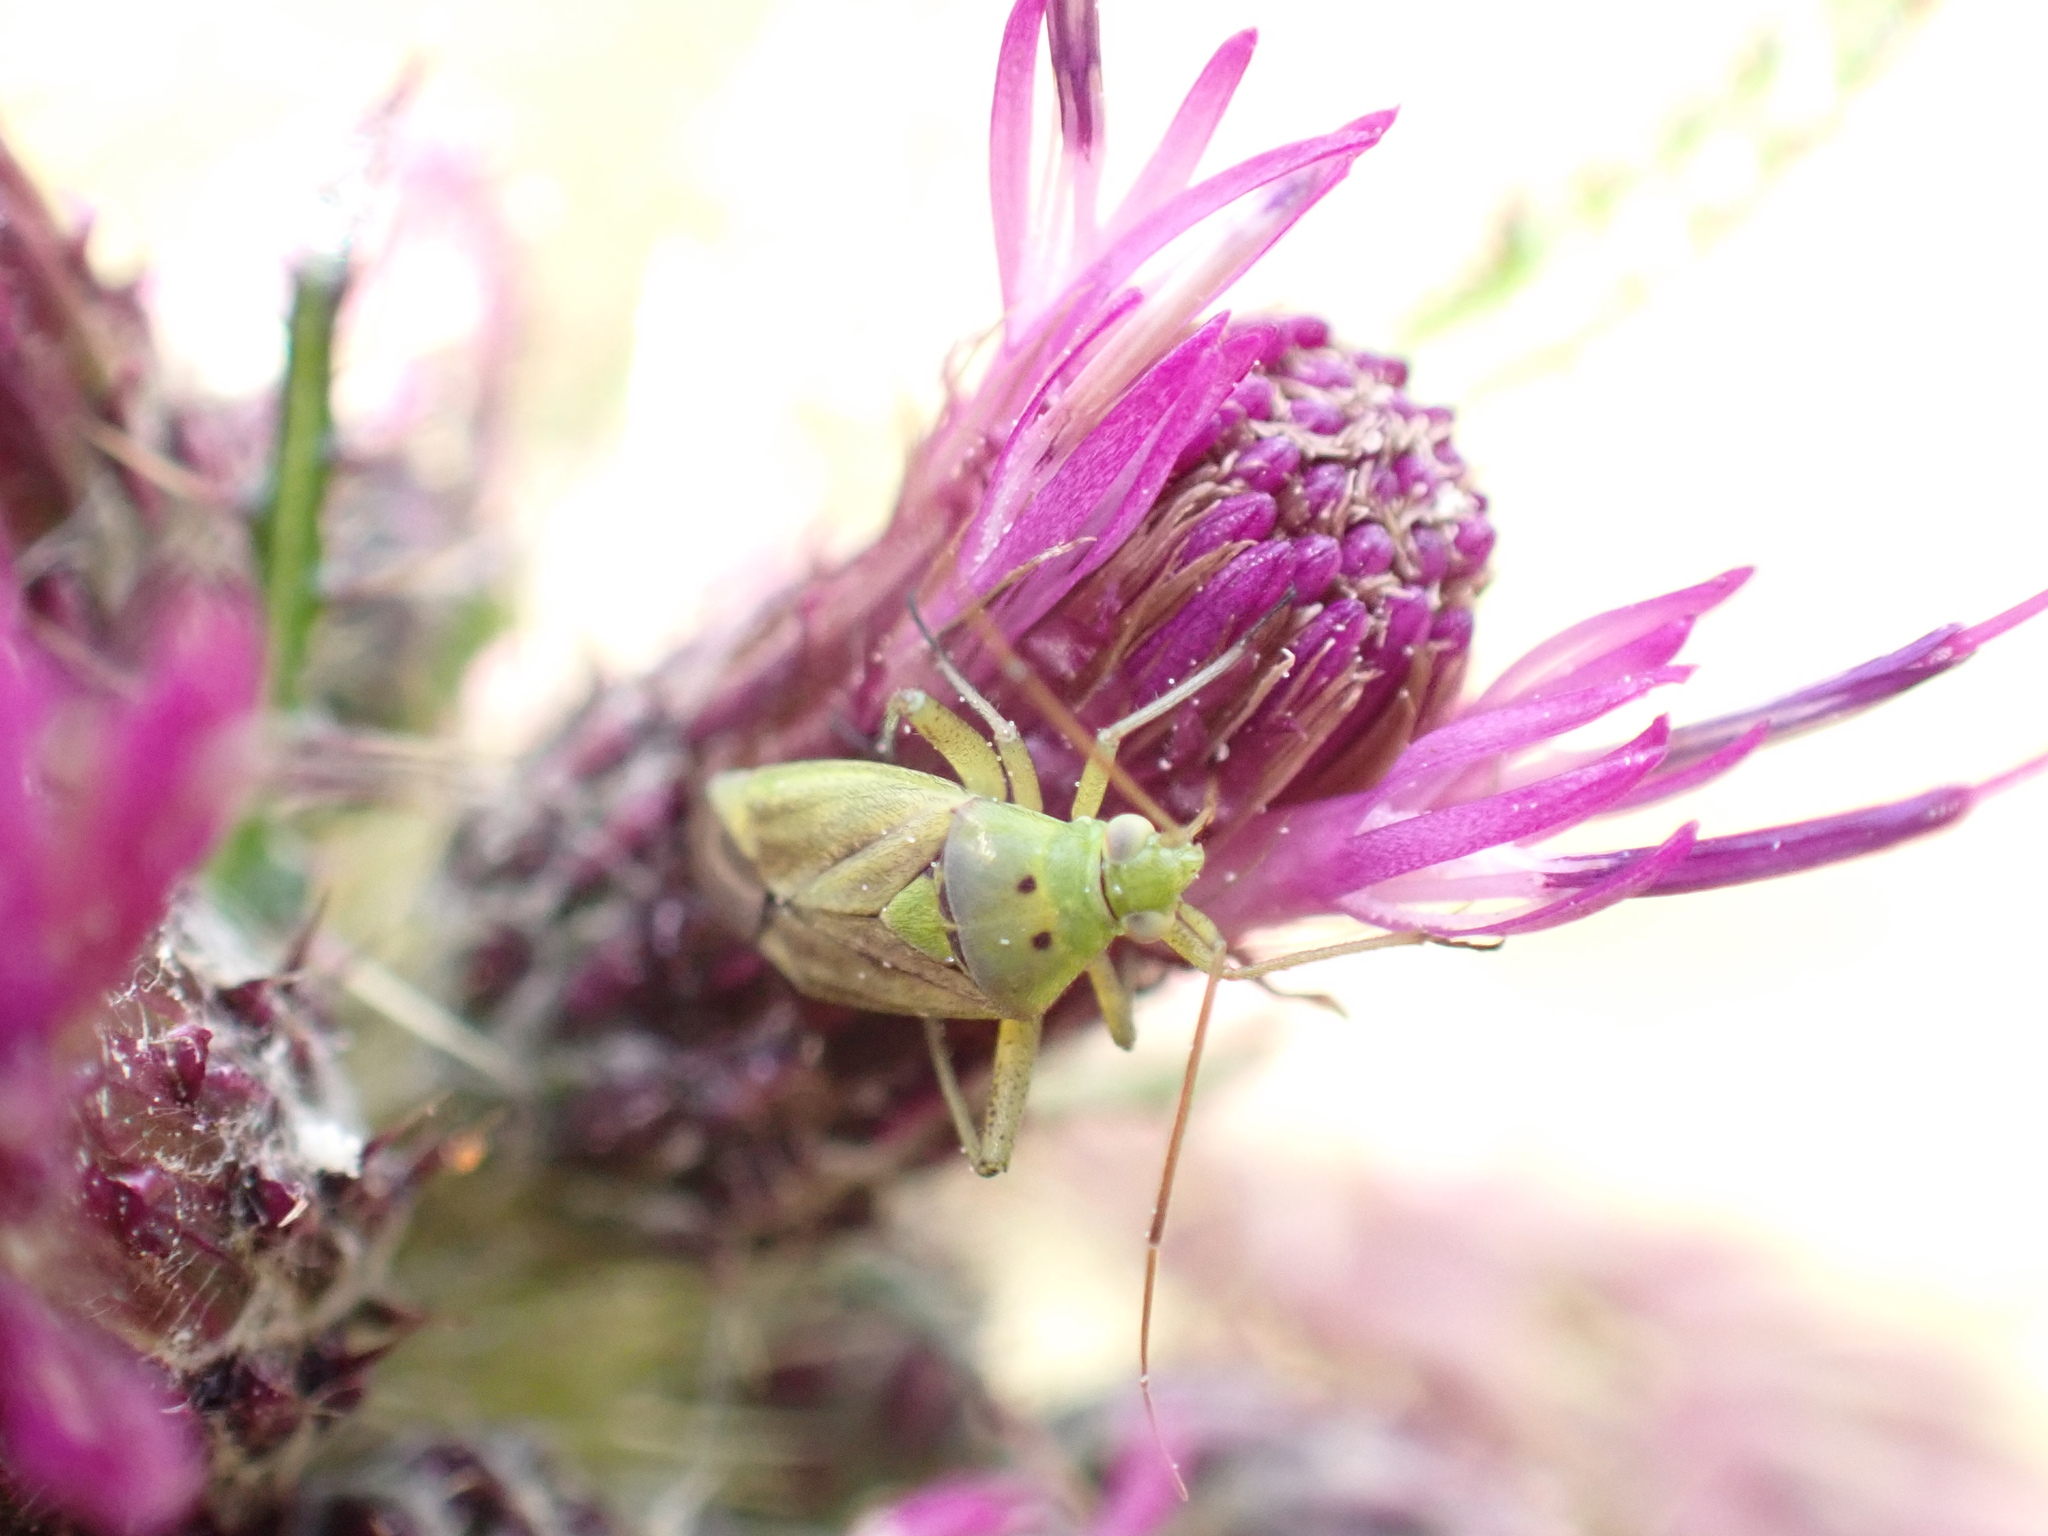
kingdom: Animalia
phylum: Arthropoda
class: Insecta
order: Hemiptera
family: Miridae
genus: Closterotomus
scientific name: Closterotomus norvegicus
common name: Plant bug
